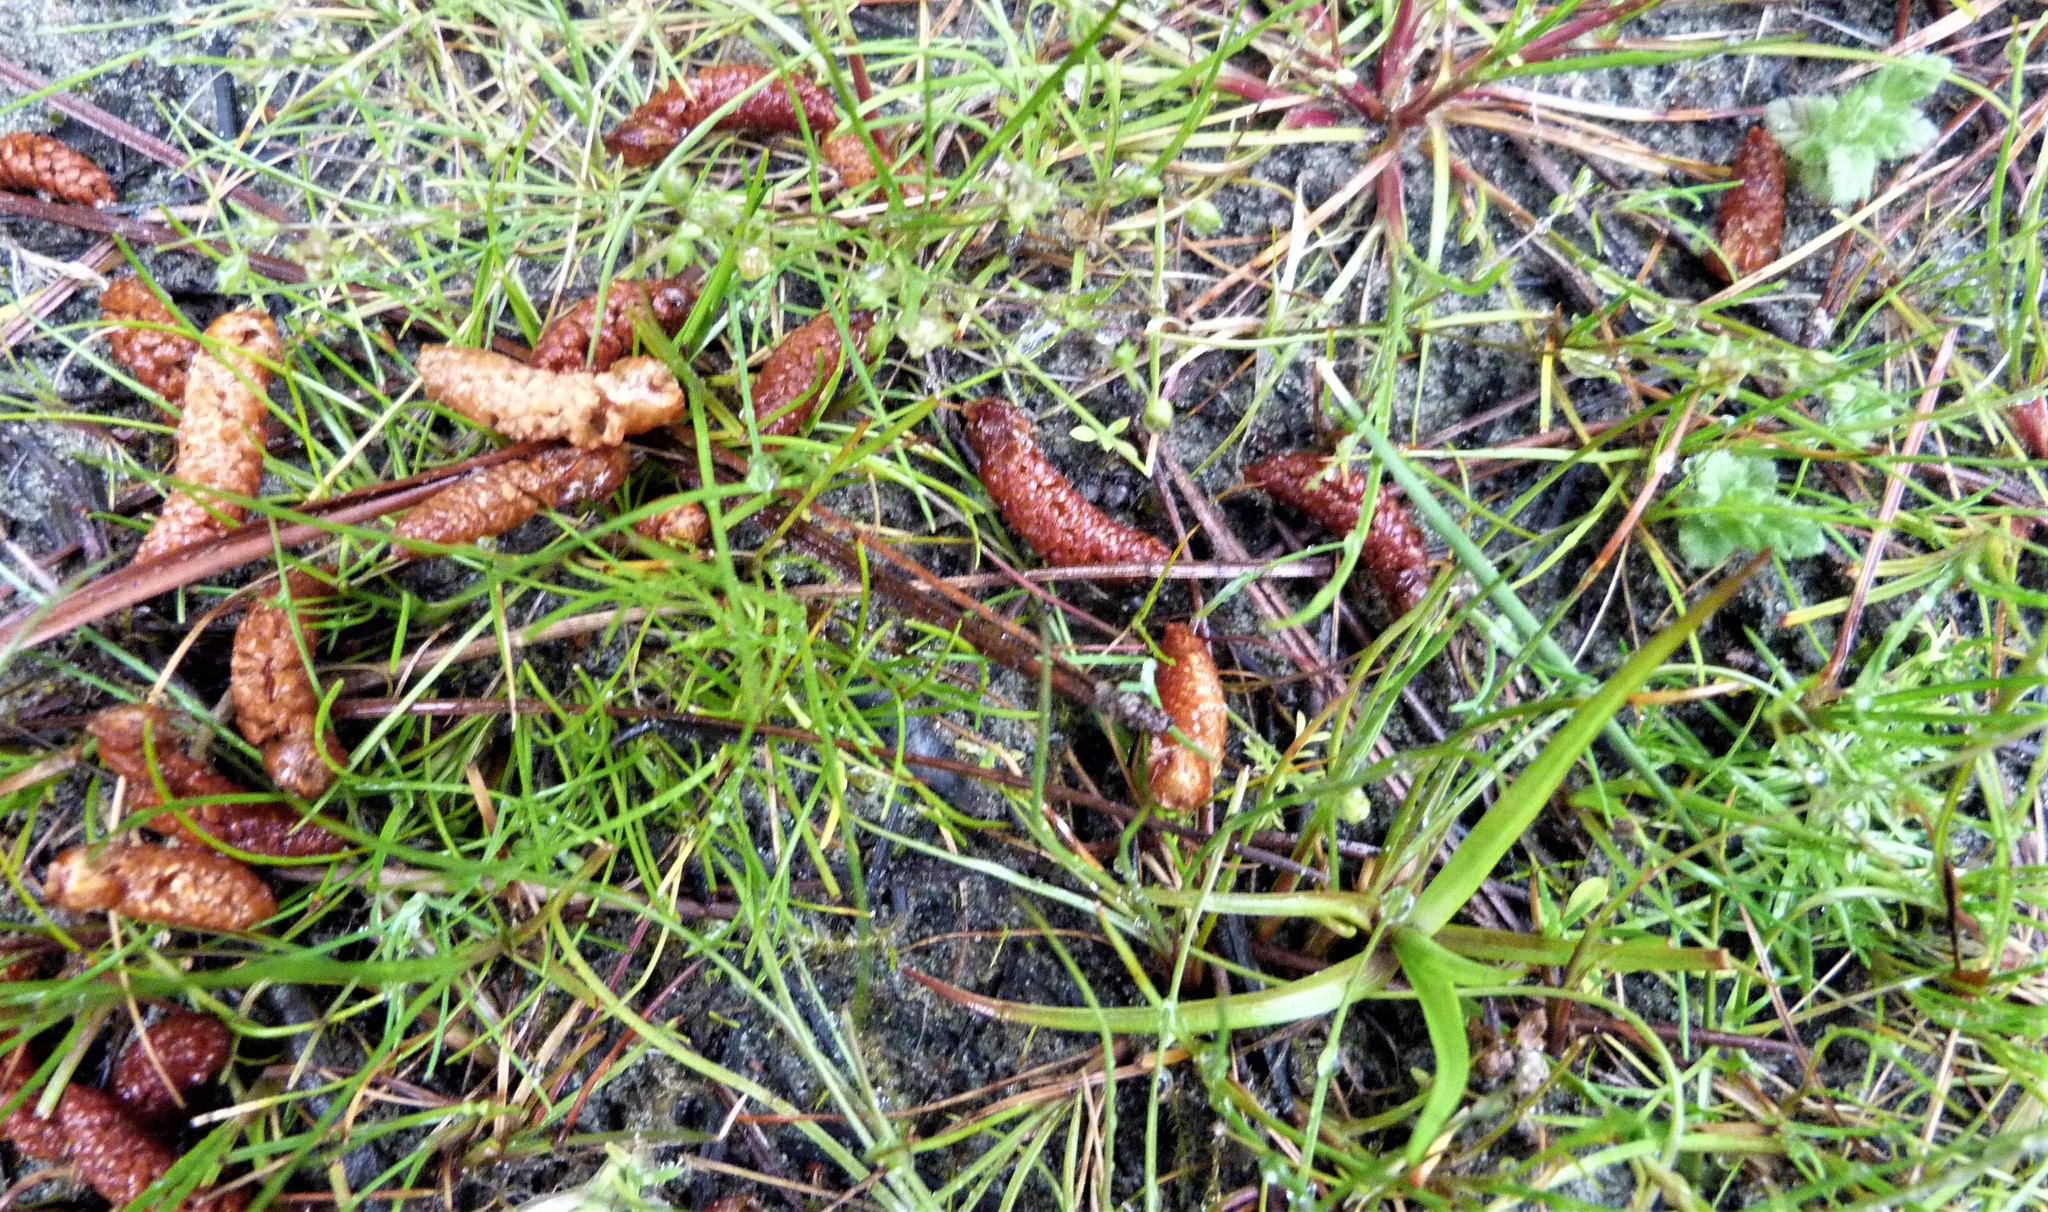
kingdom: Plantae
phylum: Tracheophyta
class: Magnoliopsida
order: Caryophyllales
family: Caryophyllaceae
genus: Sagina
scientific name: Sagina apetala
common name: Annual pearlwort
